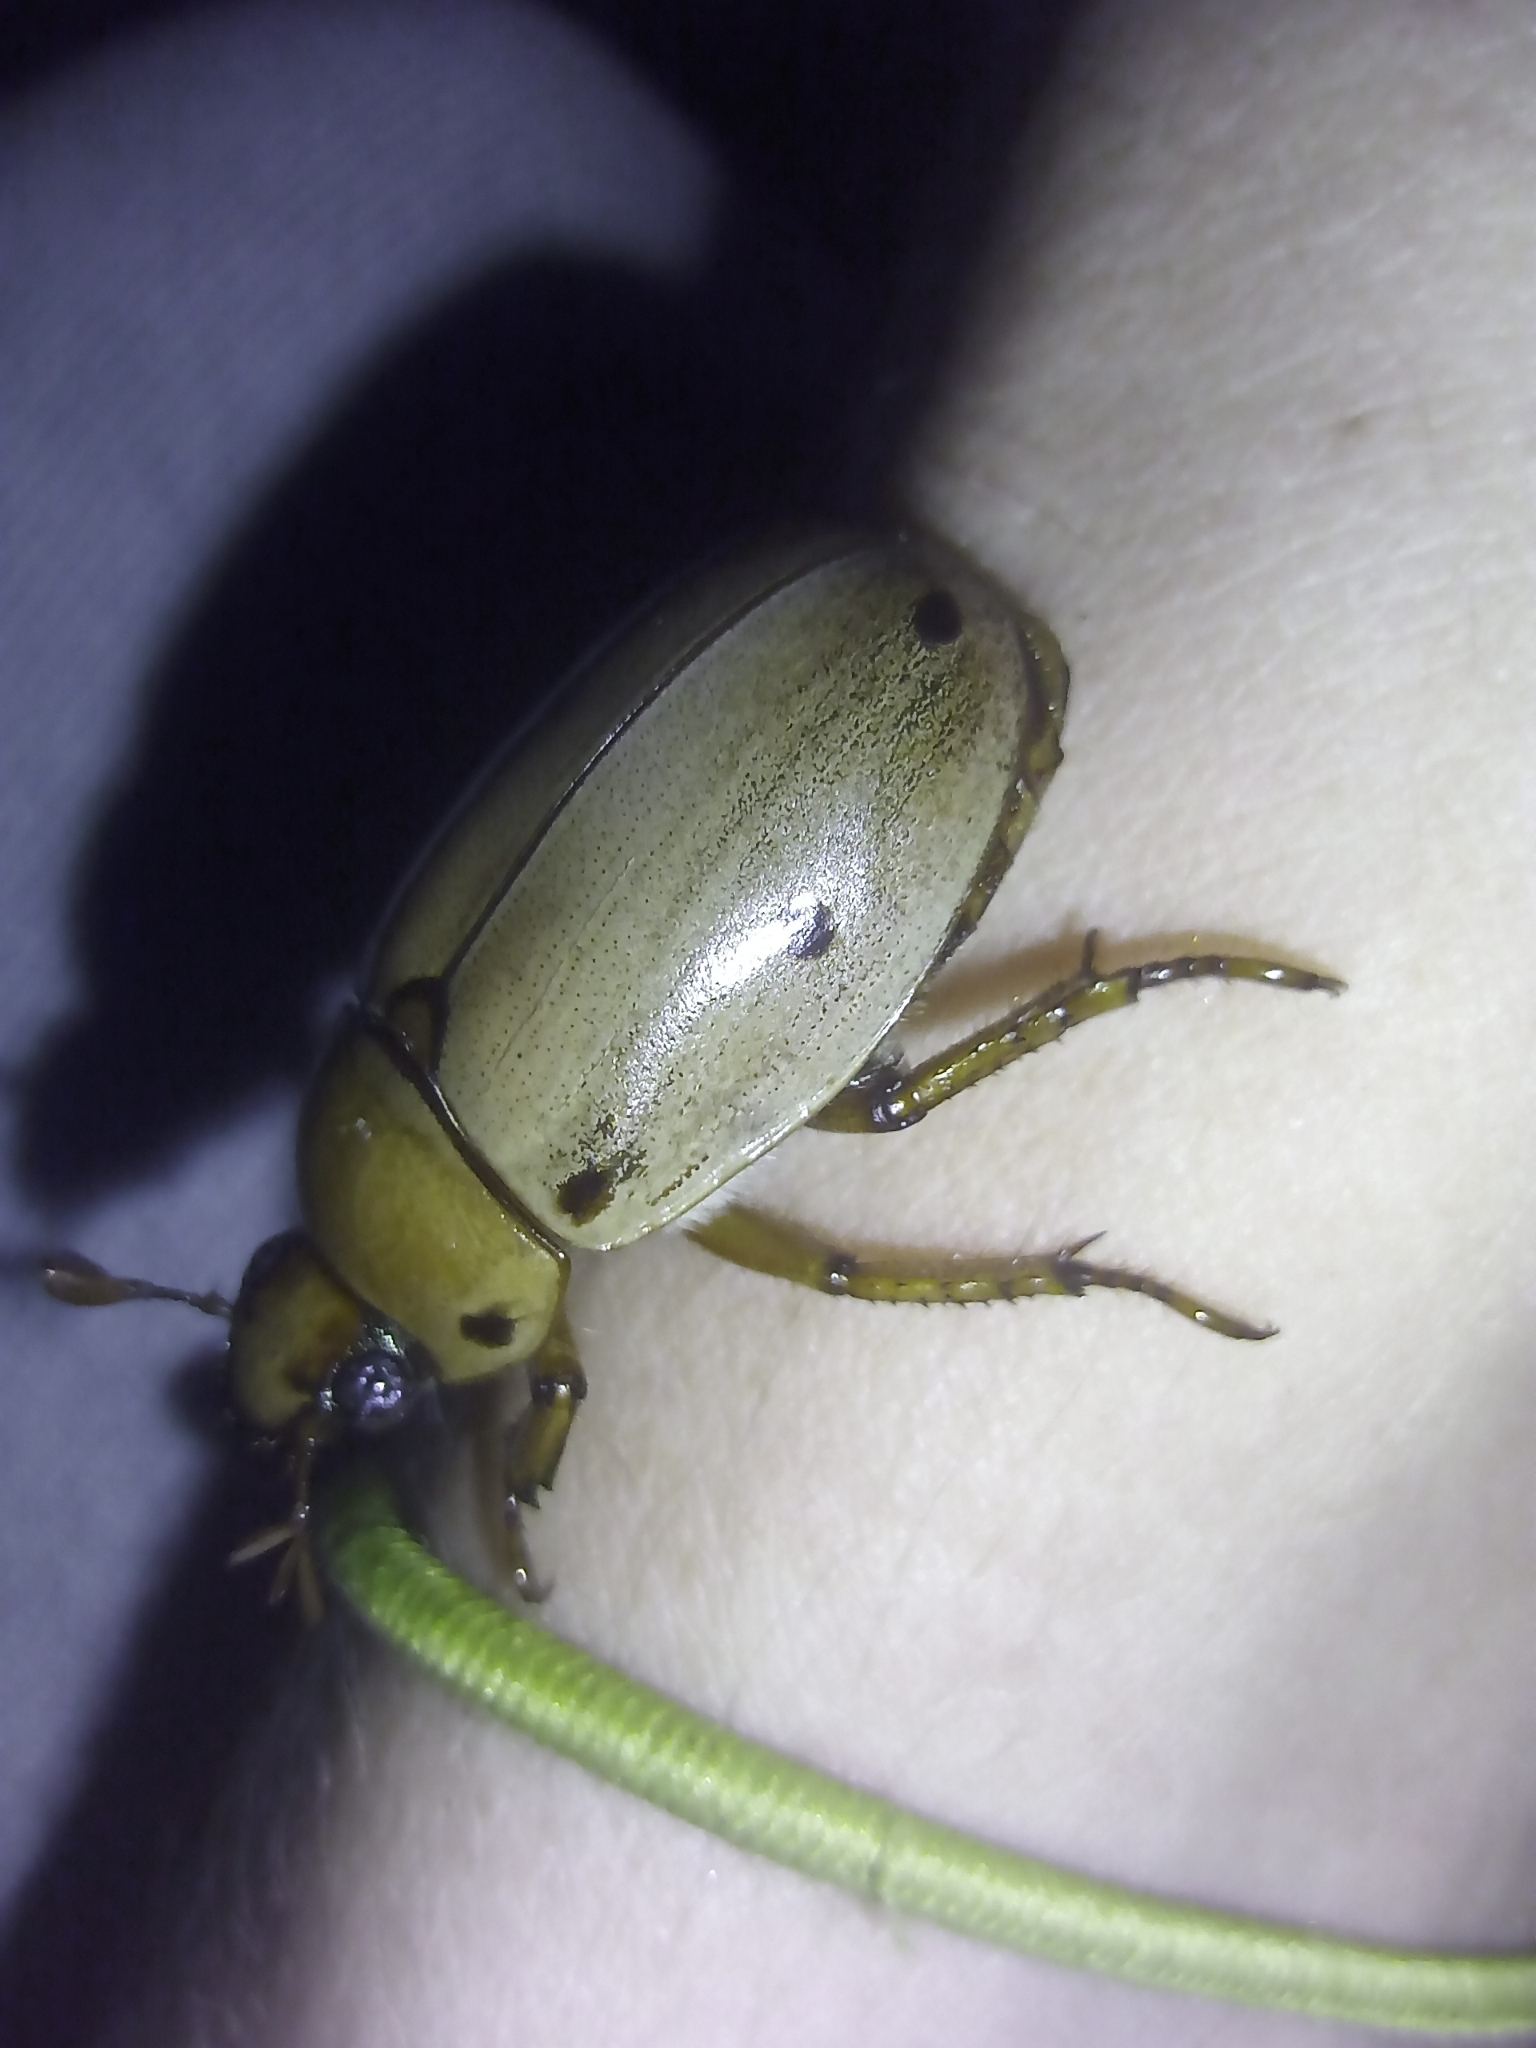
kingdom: Animalia
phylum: Arthropoda
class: Insecta
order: Coleoptera
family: Scarabaeidae
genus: Pelidnota
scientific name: Pelidnota punctata
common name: Grapevine beetle
